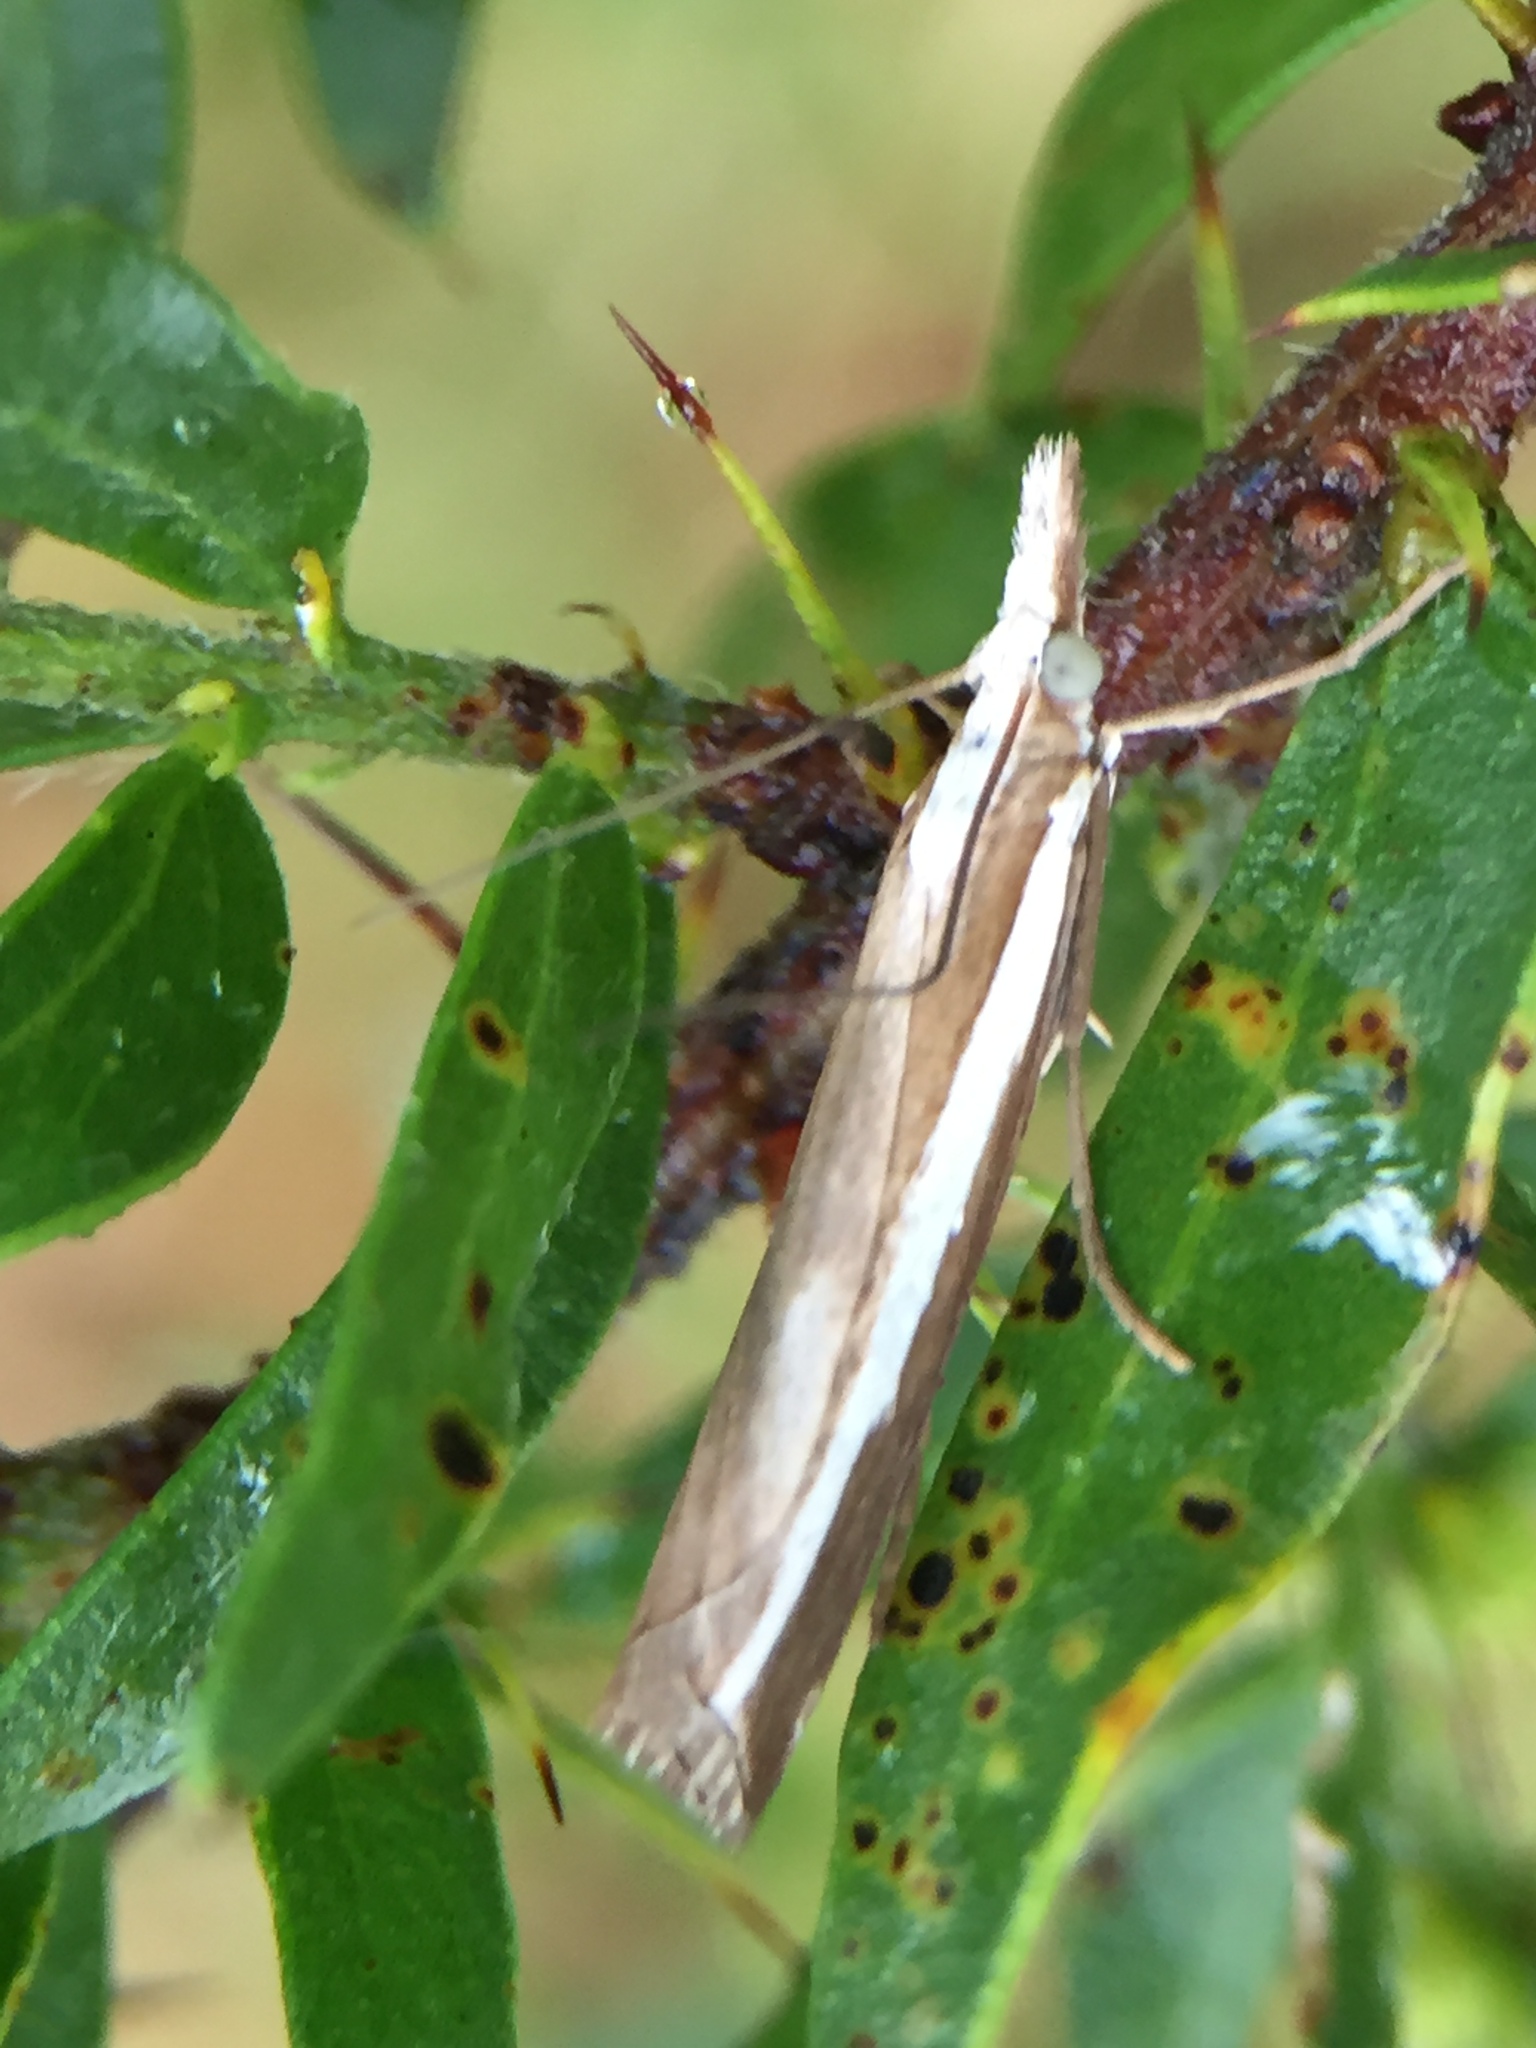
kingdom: Animalia
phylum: Arthropoda
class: Insecta
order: Lepidoptera
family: Crambidae
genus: Orocrambus
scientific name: Orocrambus vittellus
